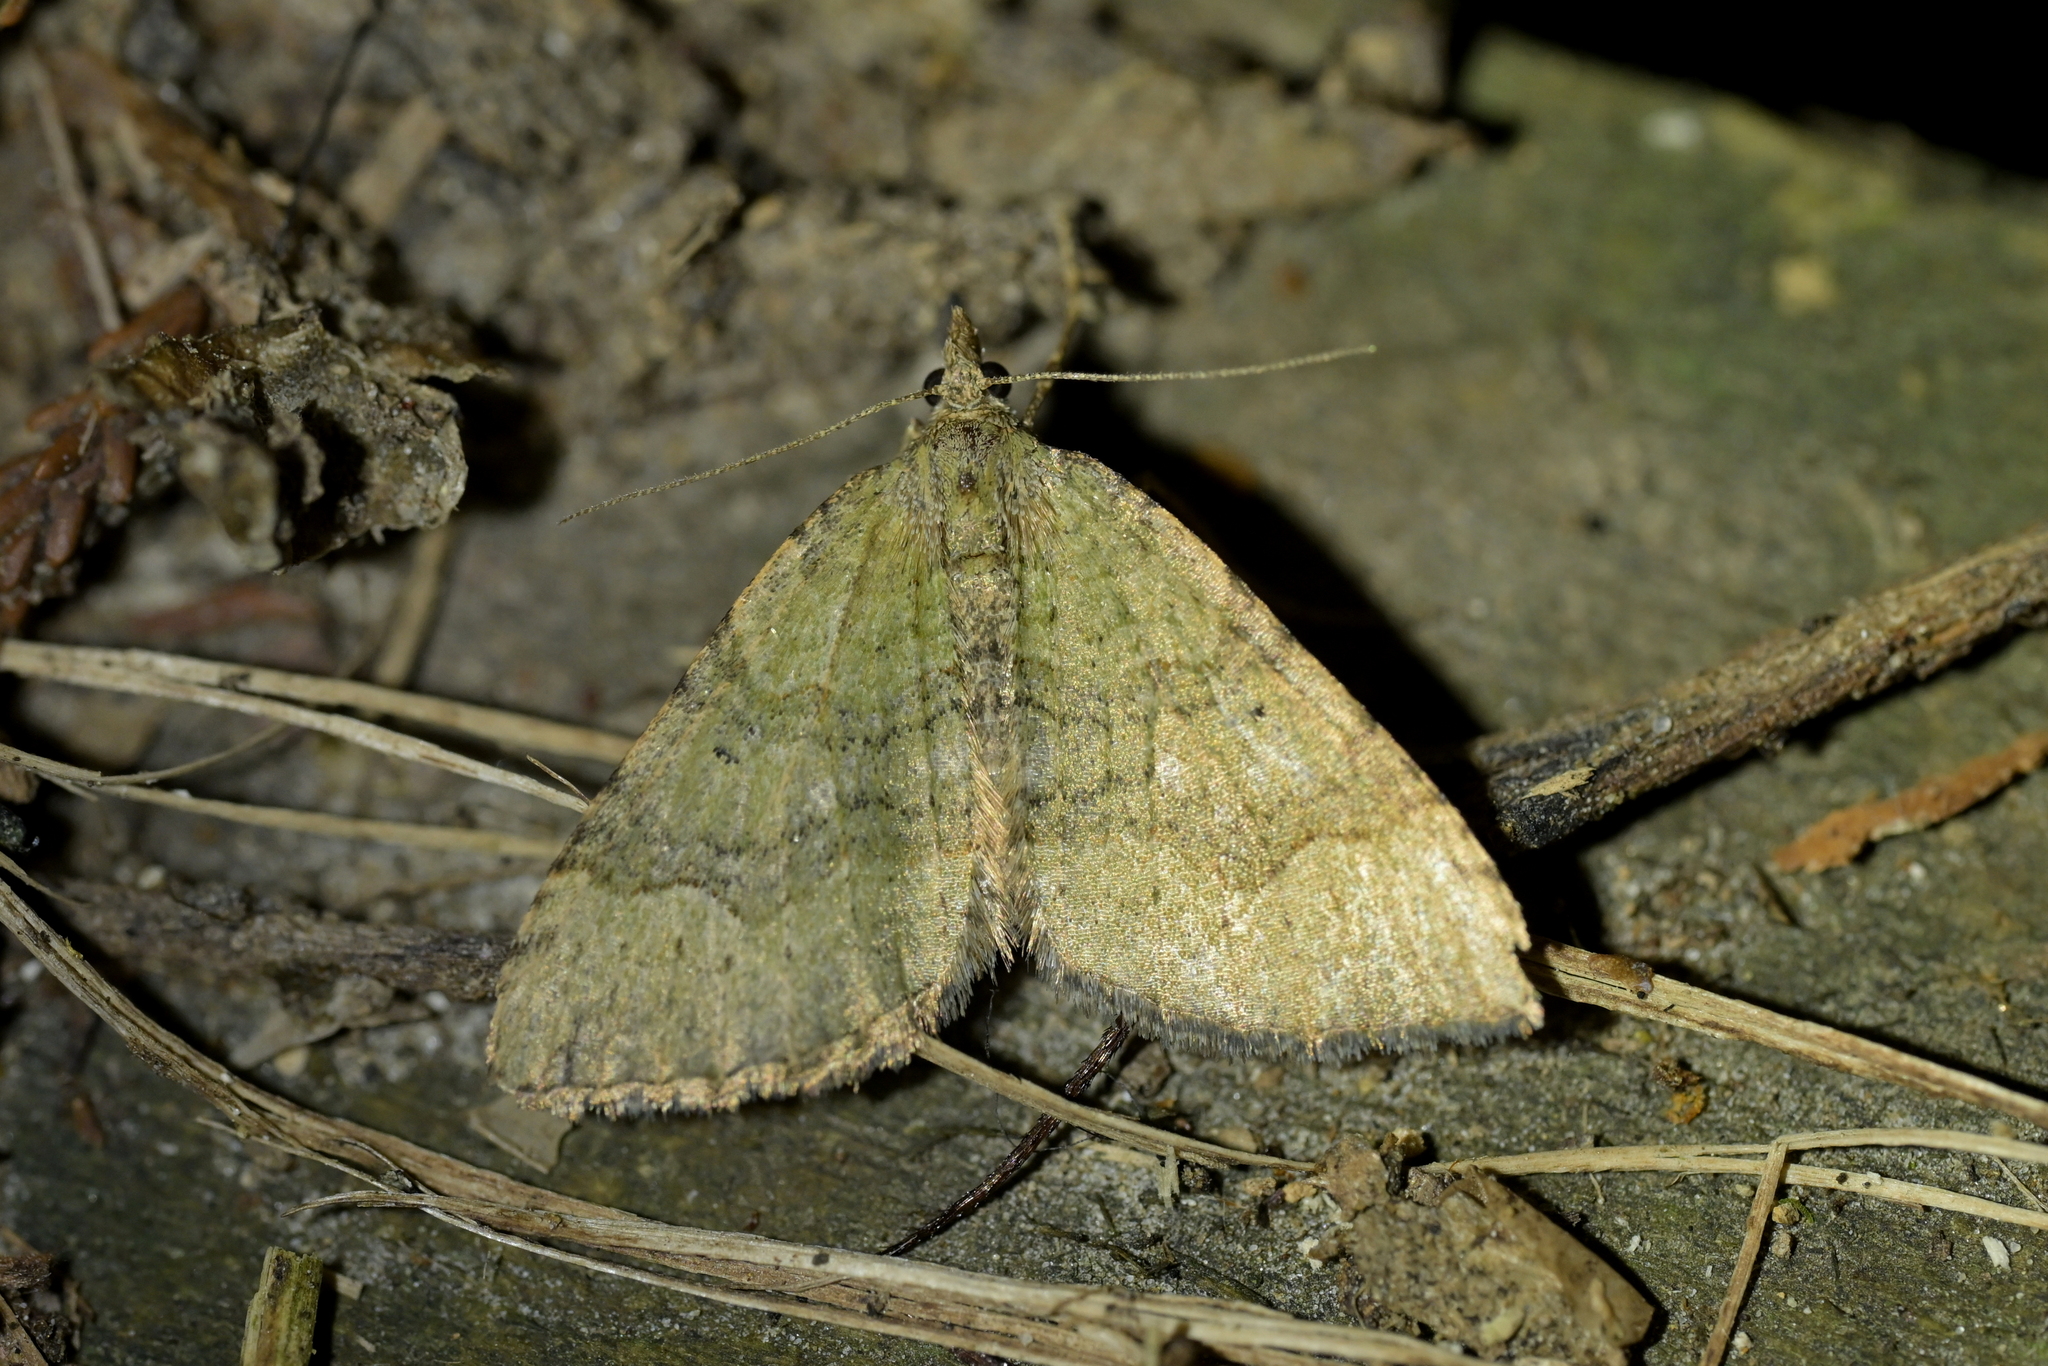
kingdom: Animalia
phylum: Arthropoda
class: Insecta
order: Lepidoptera
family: Geometridae
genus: Epyaxa
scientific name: Epyaxa rosearia
